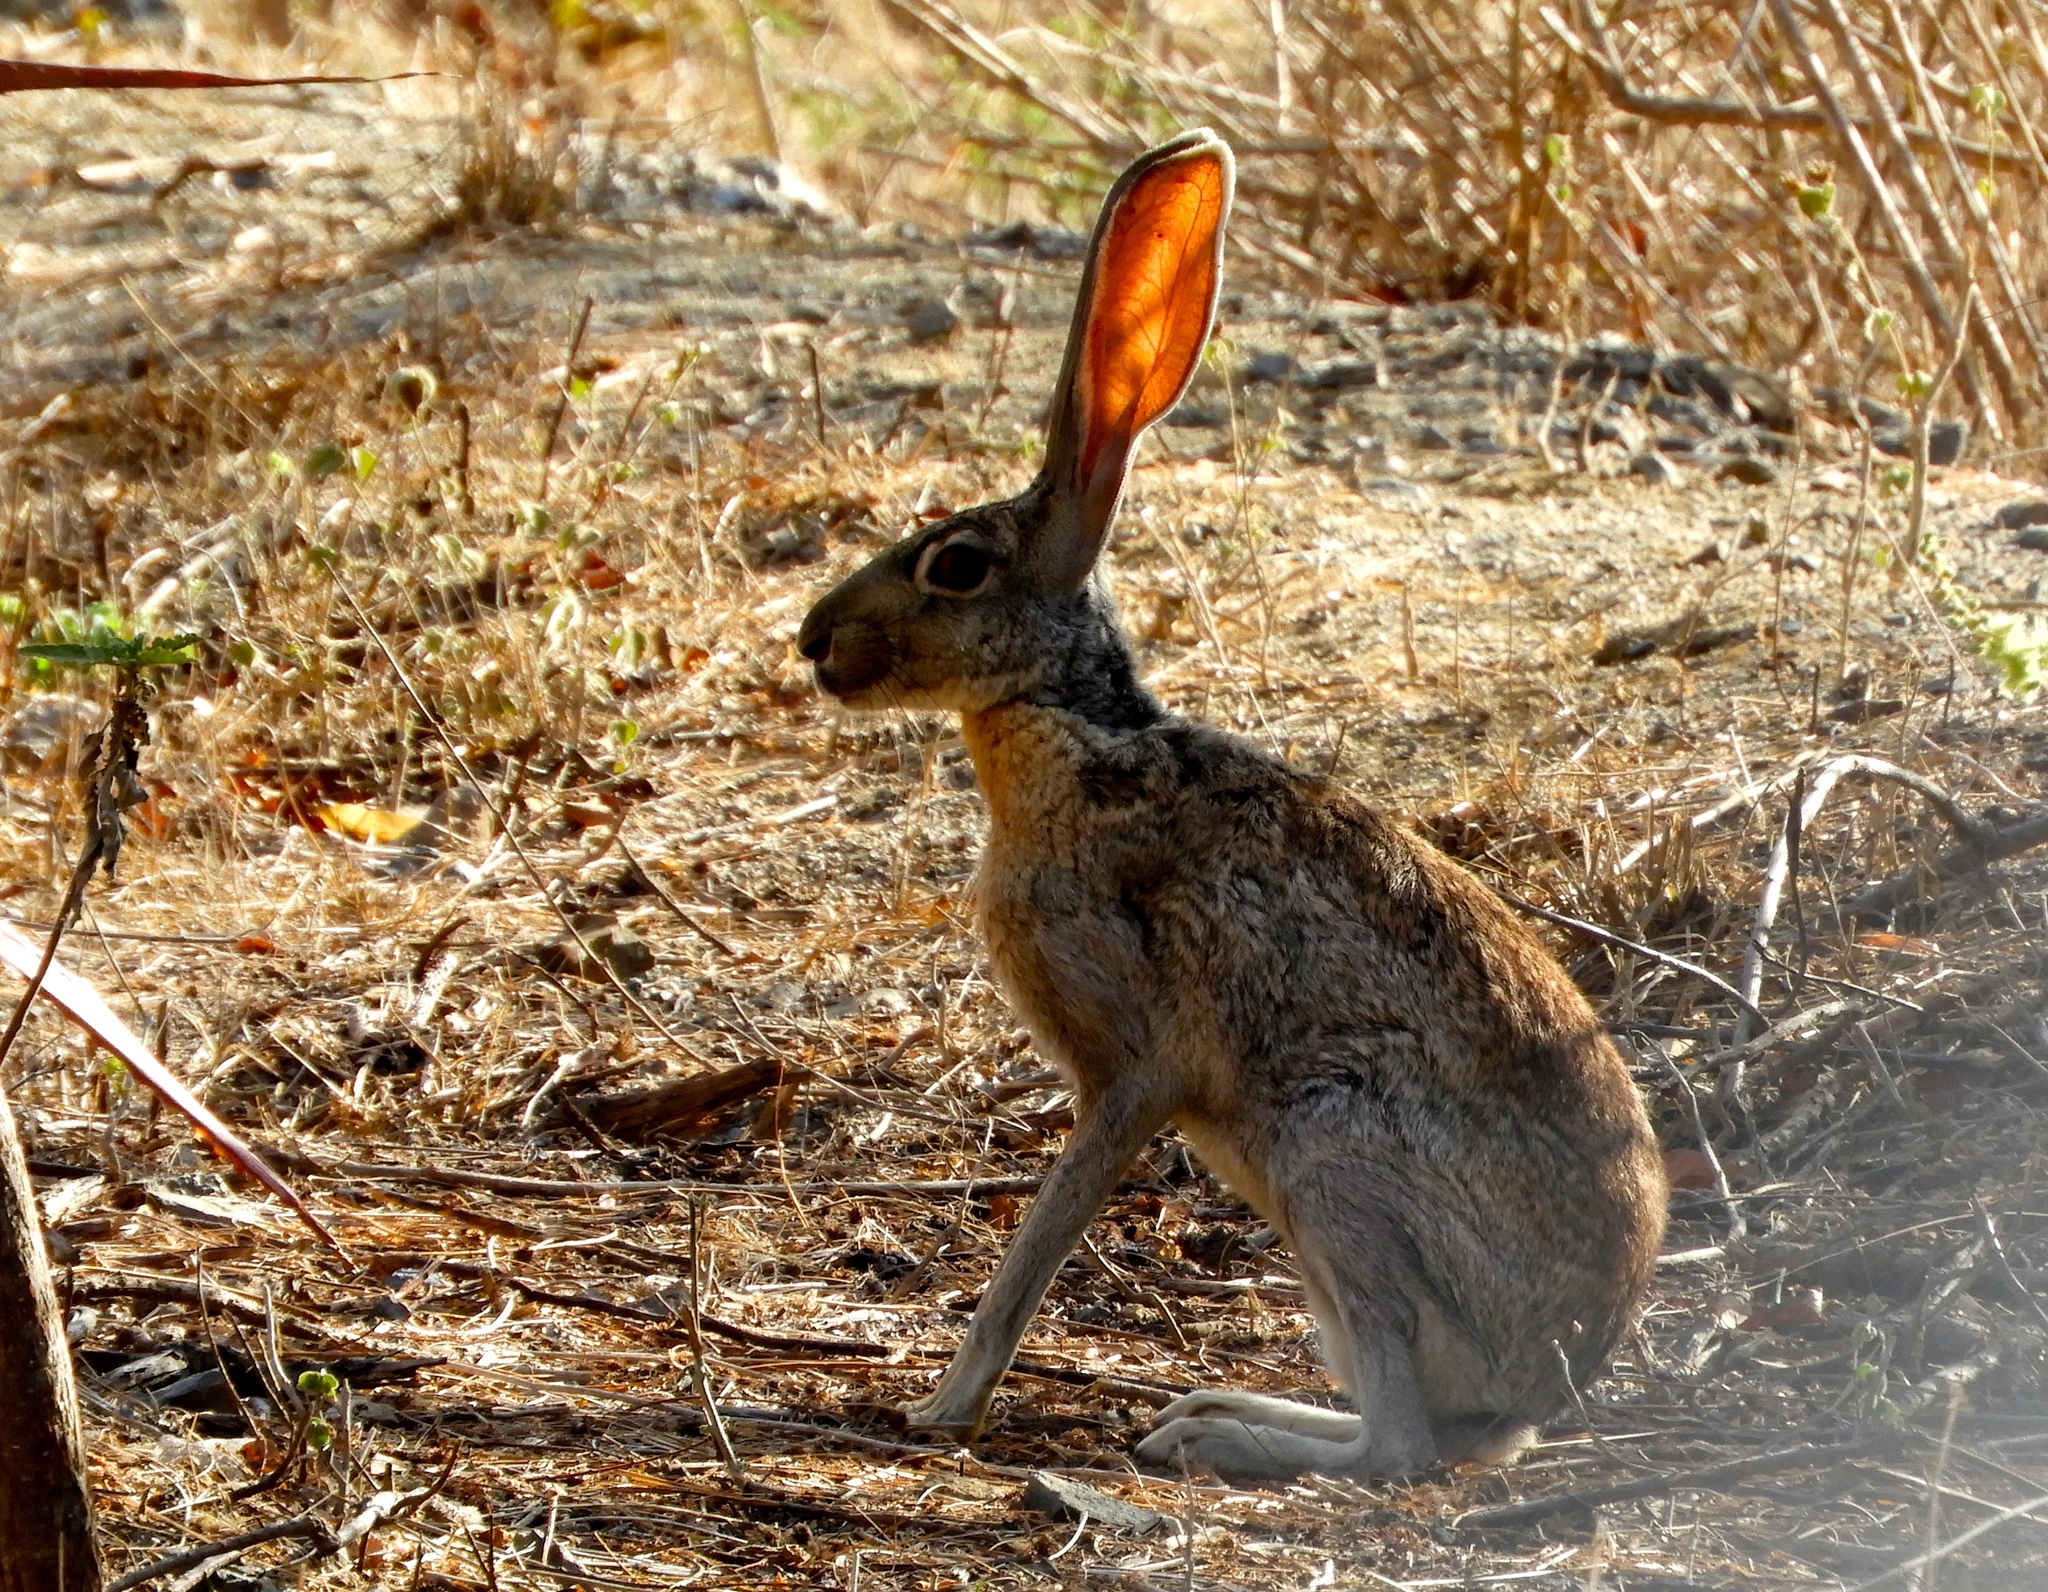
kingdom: Animalia
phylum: Chordata
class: Mammalia
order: Lagomorpha
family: Leporidae
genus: Lepus
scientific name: Lepus alleni
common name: Antelope jackrabbit
